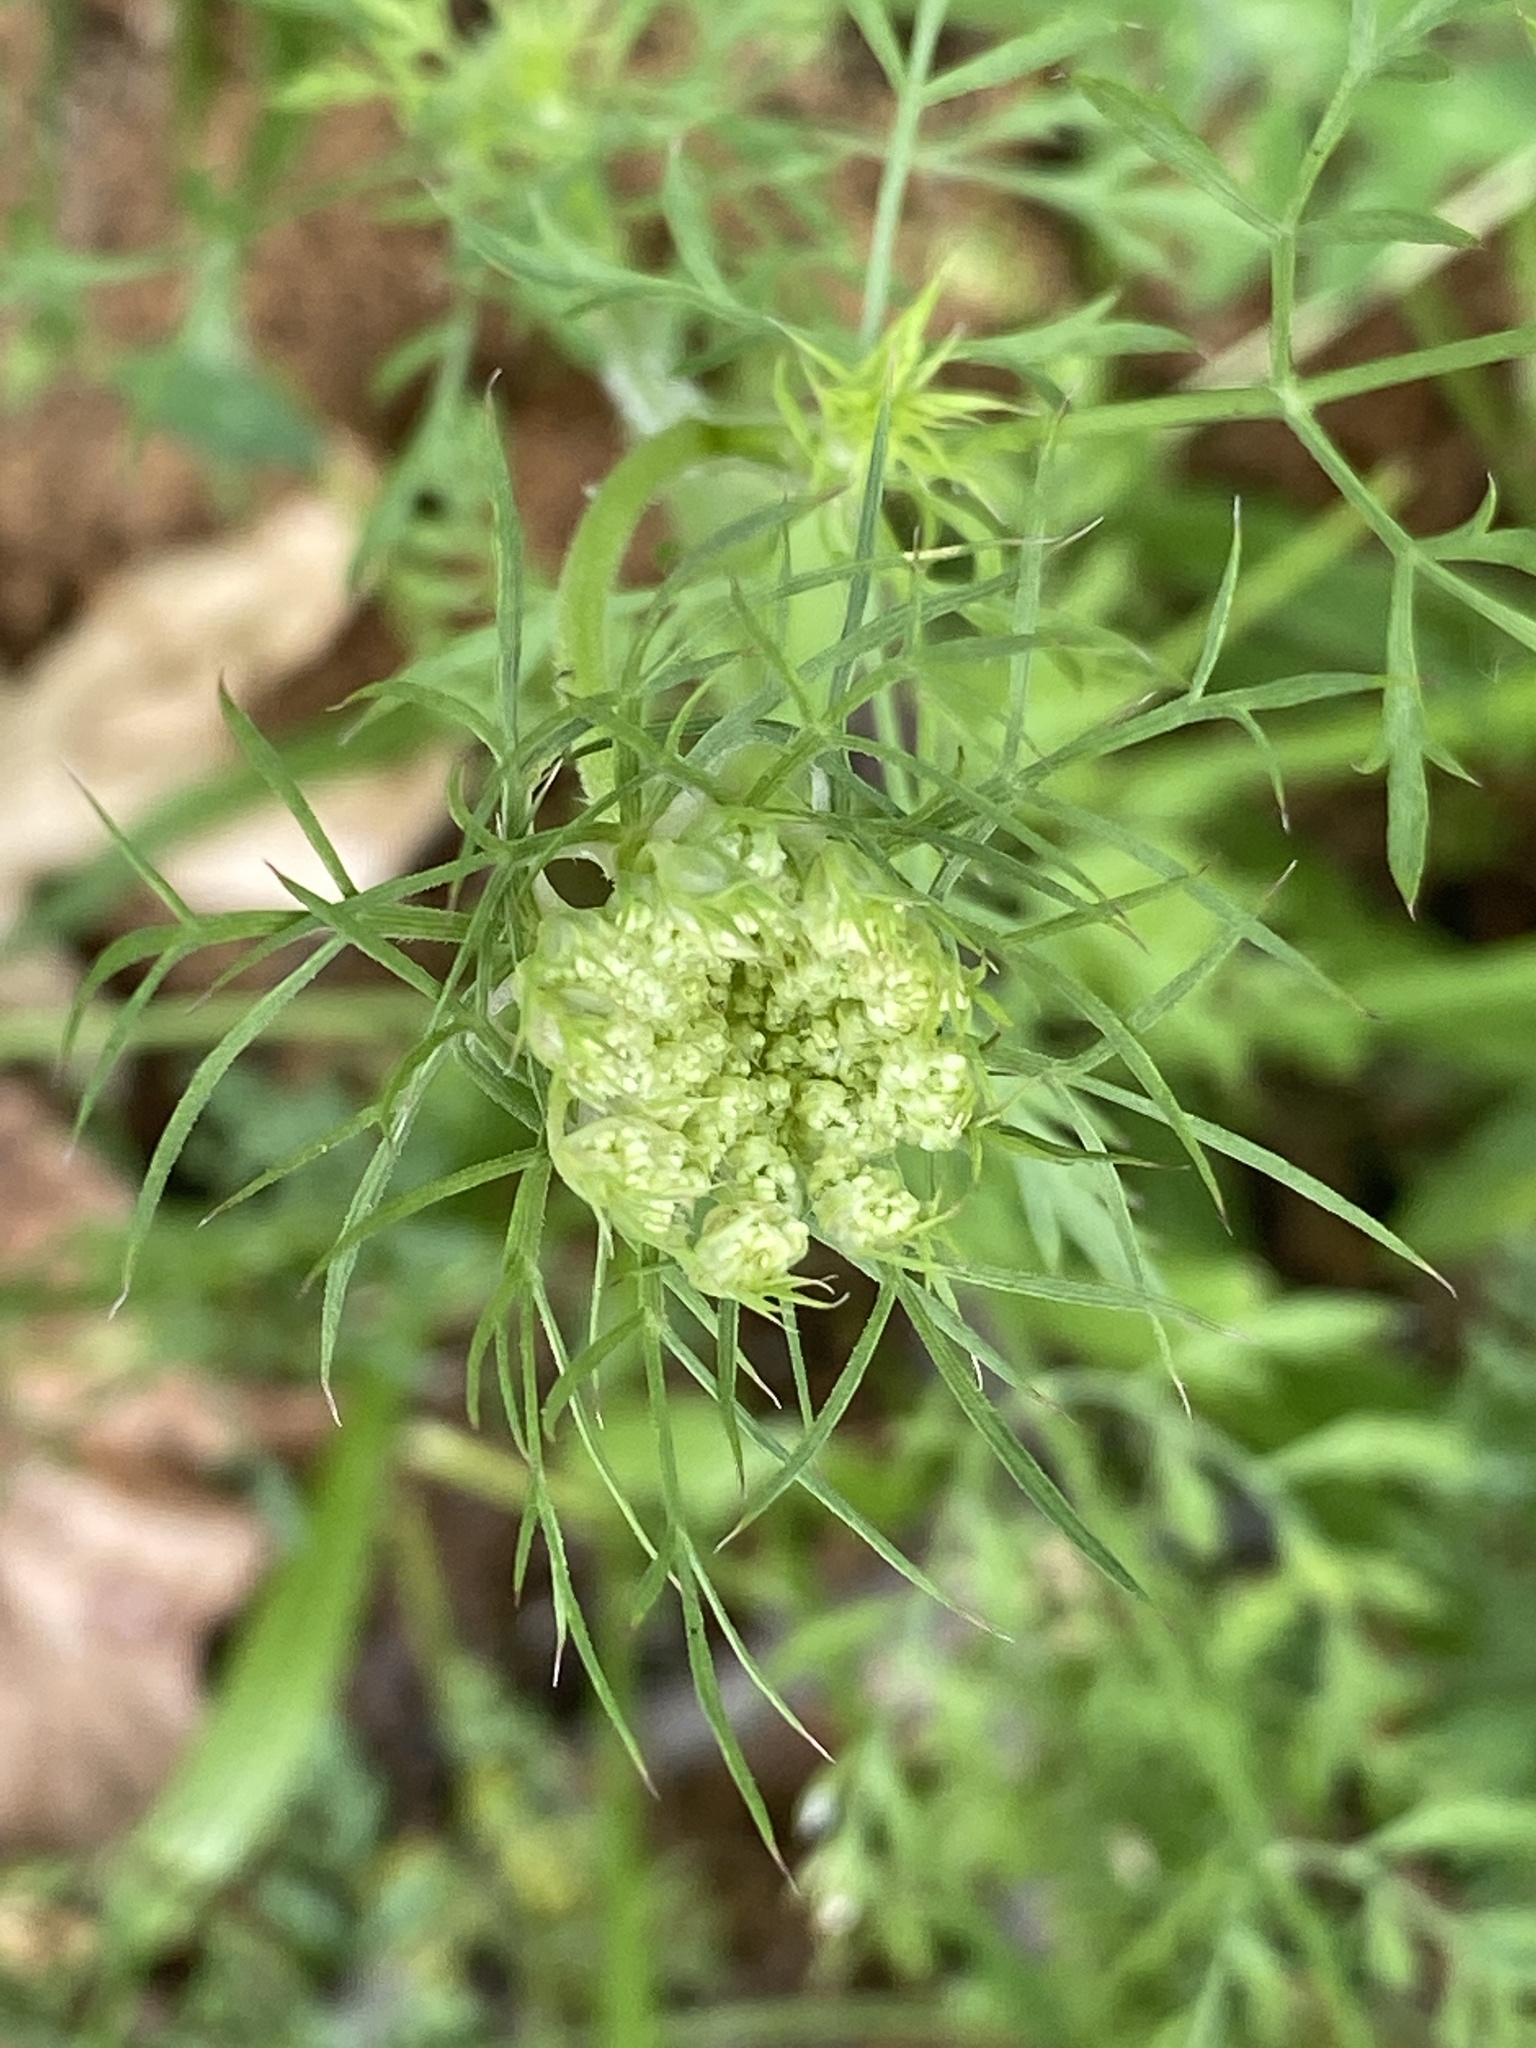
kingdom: Plantae
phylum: Tracheophyta
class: Magnoliopsida
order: Apiales
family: Apiaceae
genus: Daucus
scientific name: Daucus carota
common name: Wild carrot
